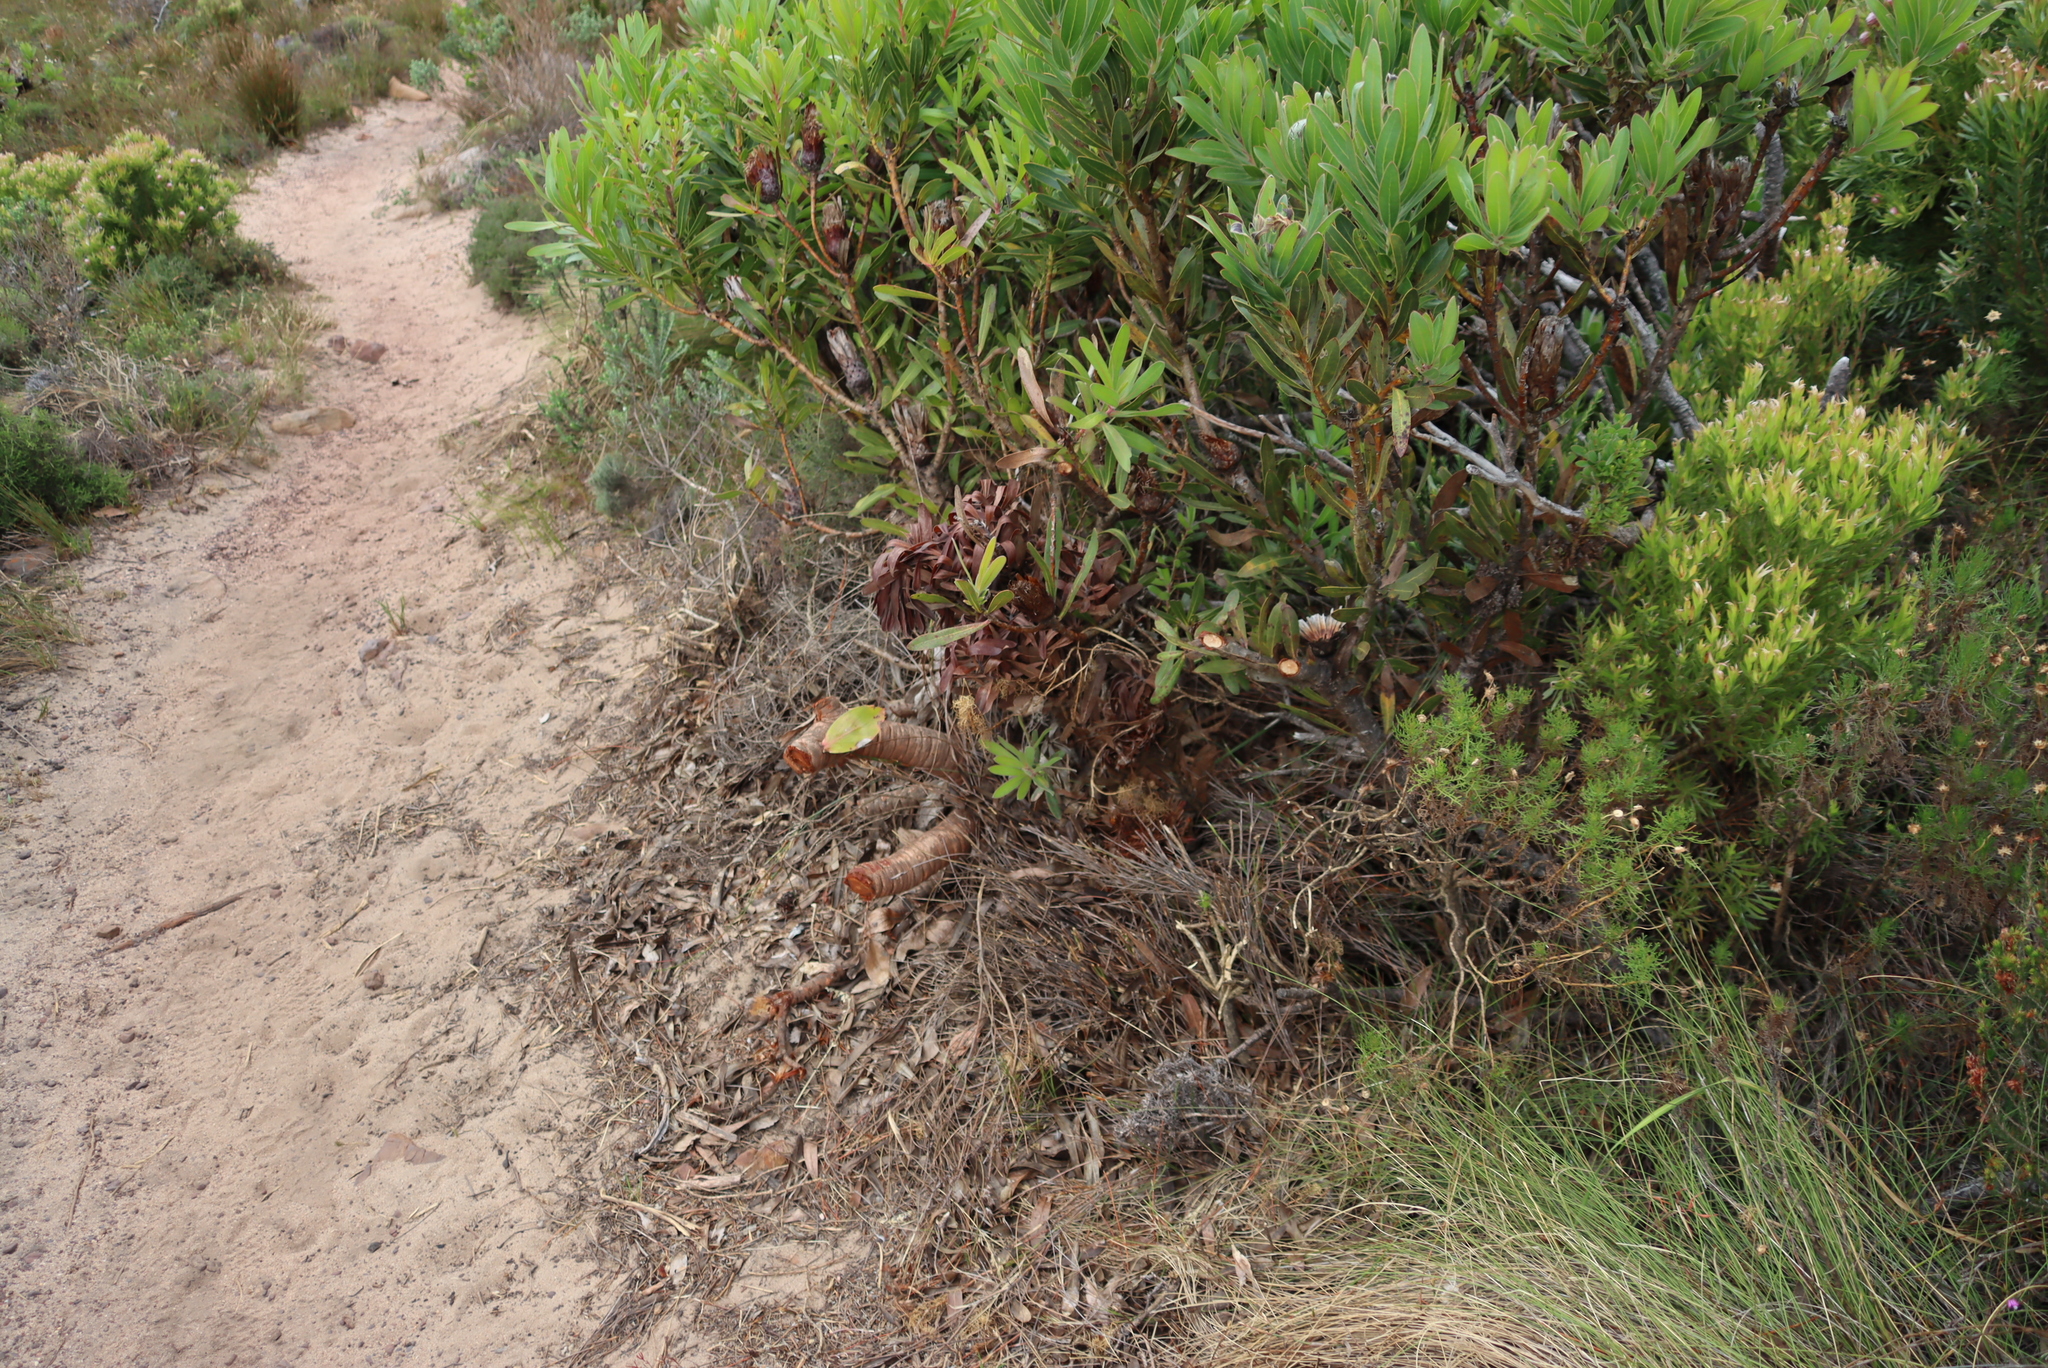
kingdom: Plantae
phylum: Tracheophyta
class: Magnoliopsida
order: Proteales
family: Proteaceae
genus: Protea
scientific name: Protea lepidocarpodendron
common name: Black-bearded protea
